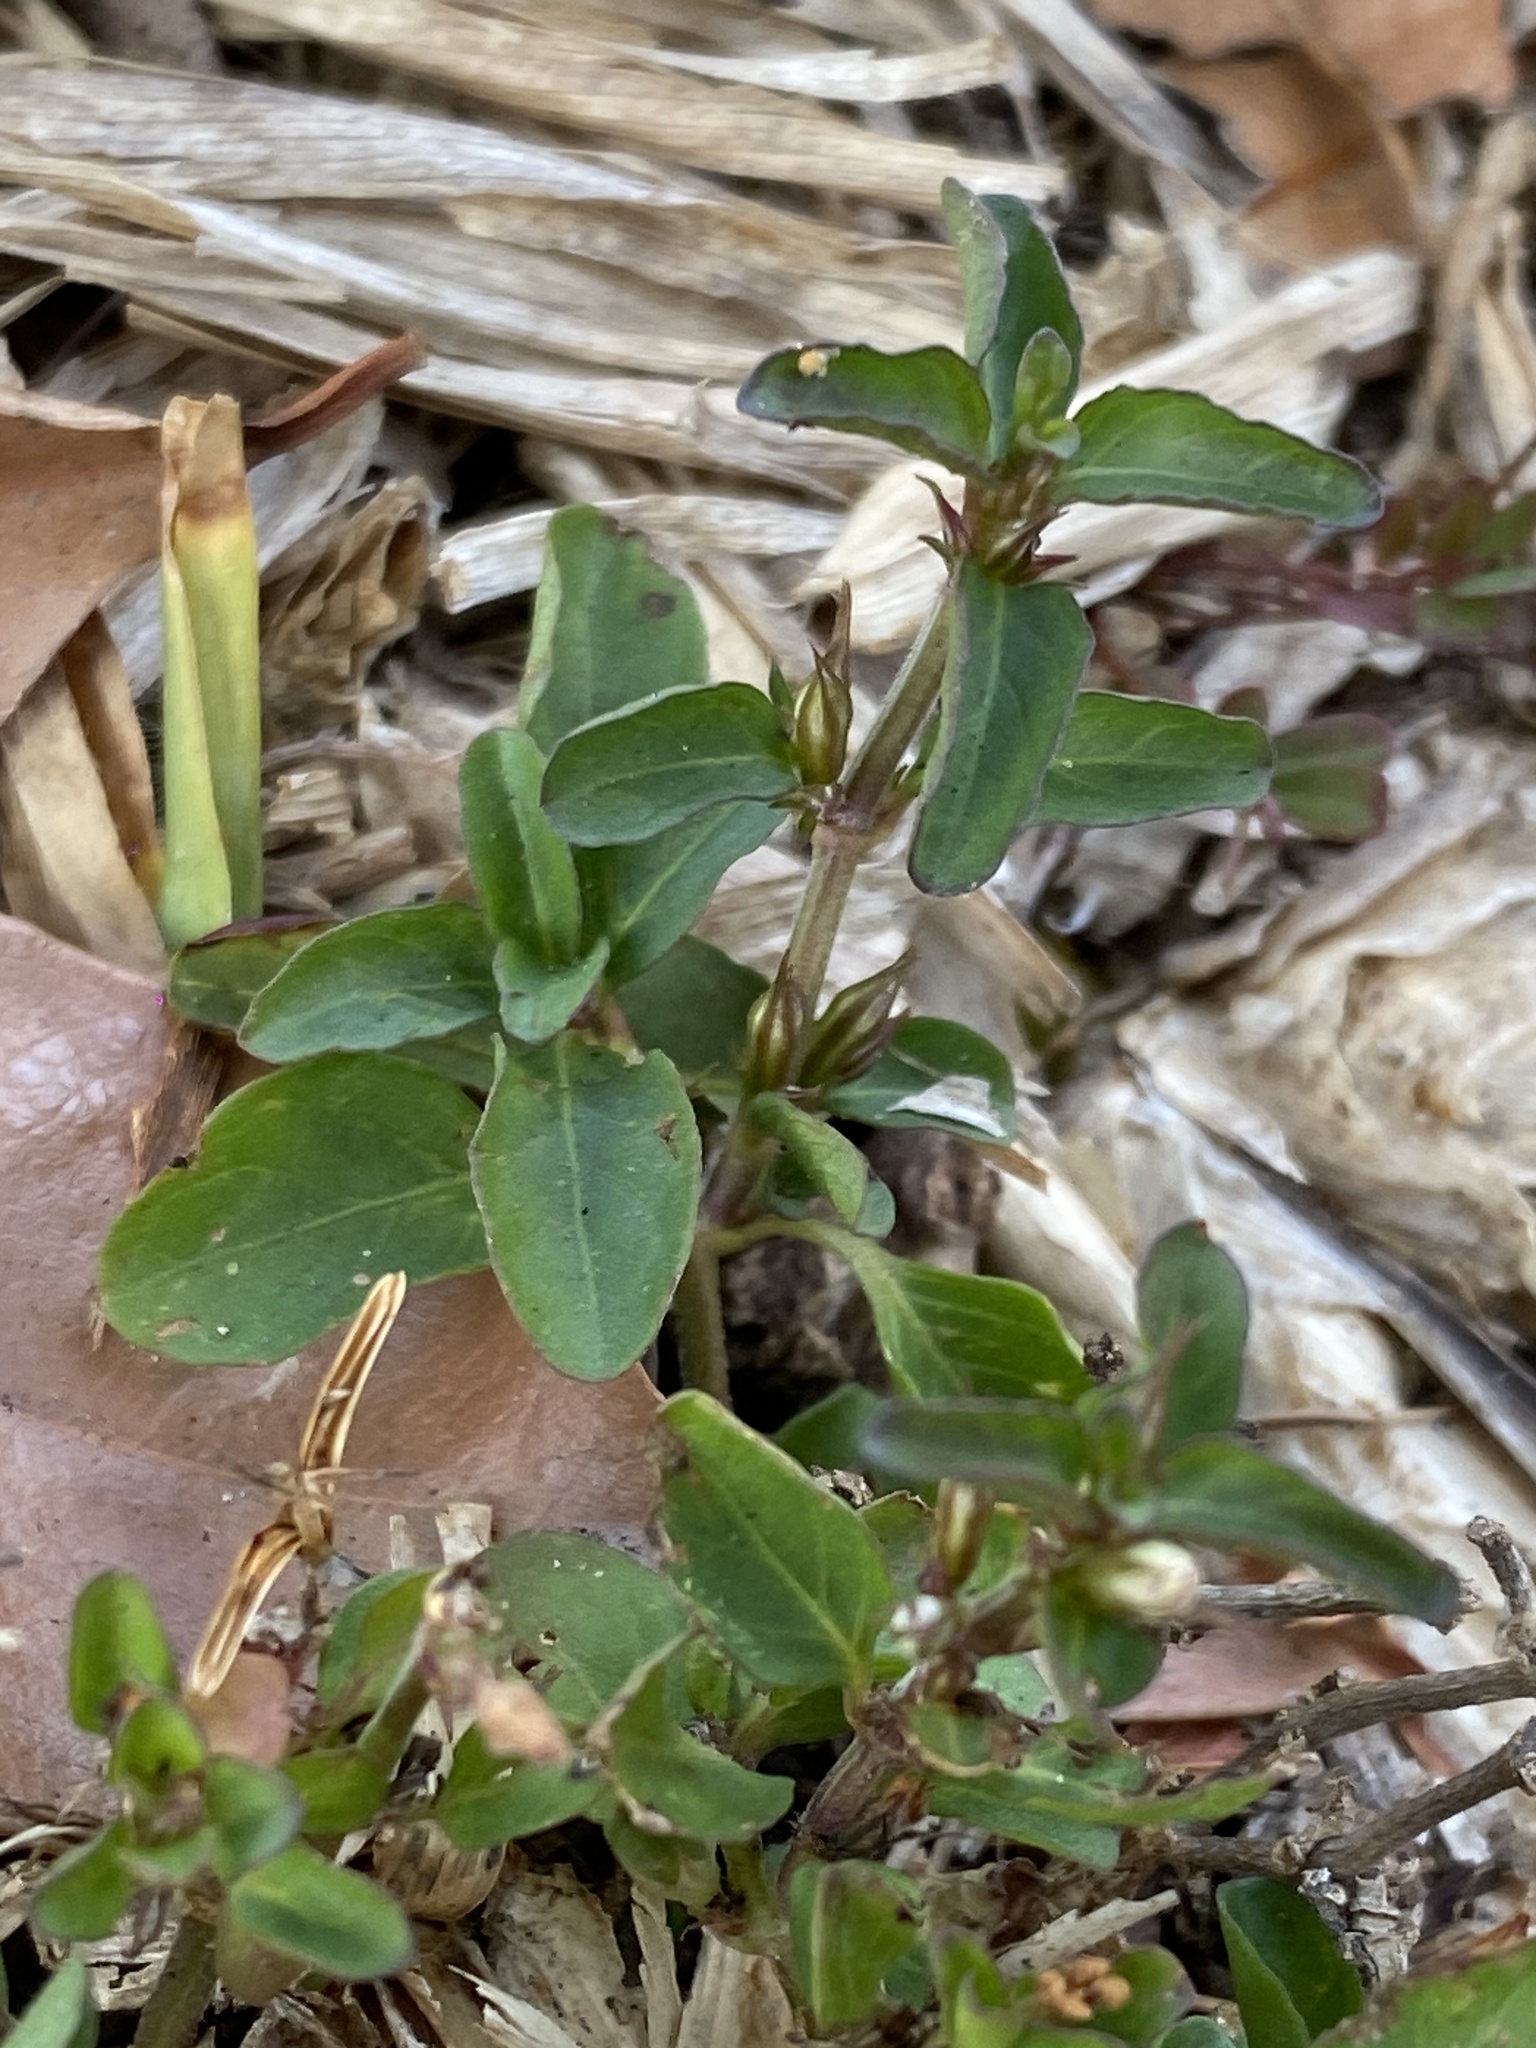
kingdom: Plantae
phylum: Tracheophyta
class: Magnoliopsida
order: Lamiales
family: Acanthaceae
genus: Hygrophila
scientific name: Hygrophila erecta
